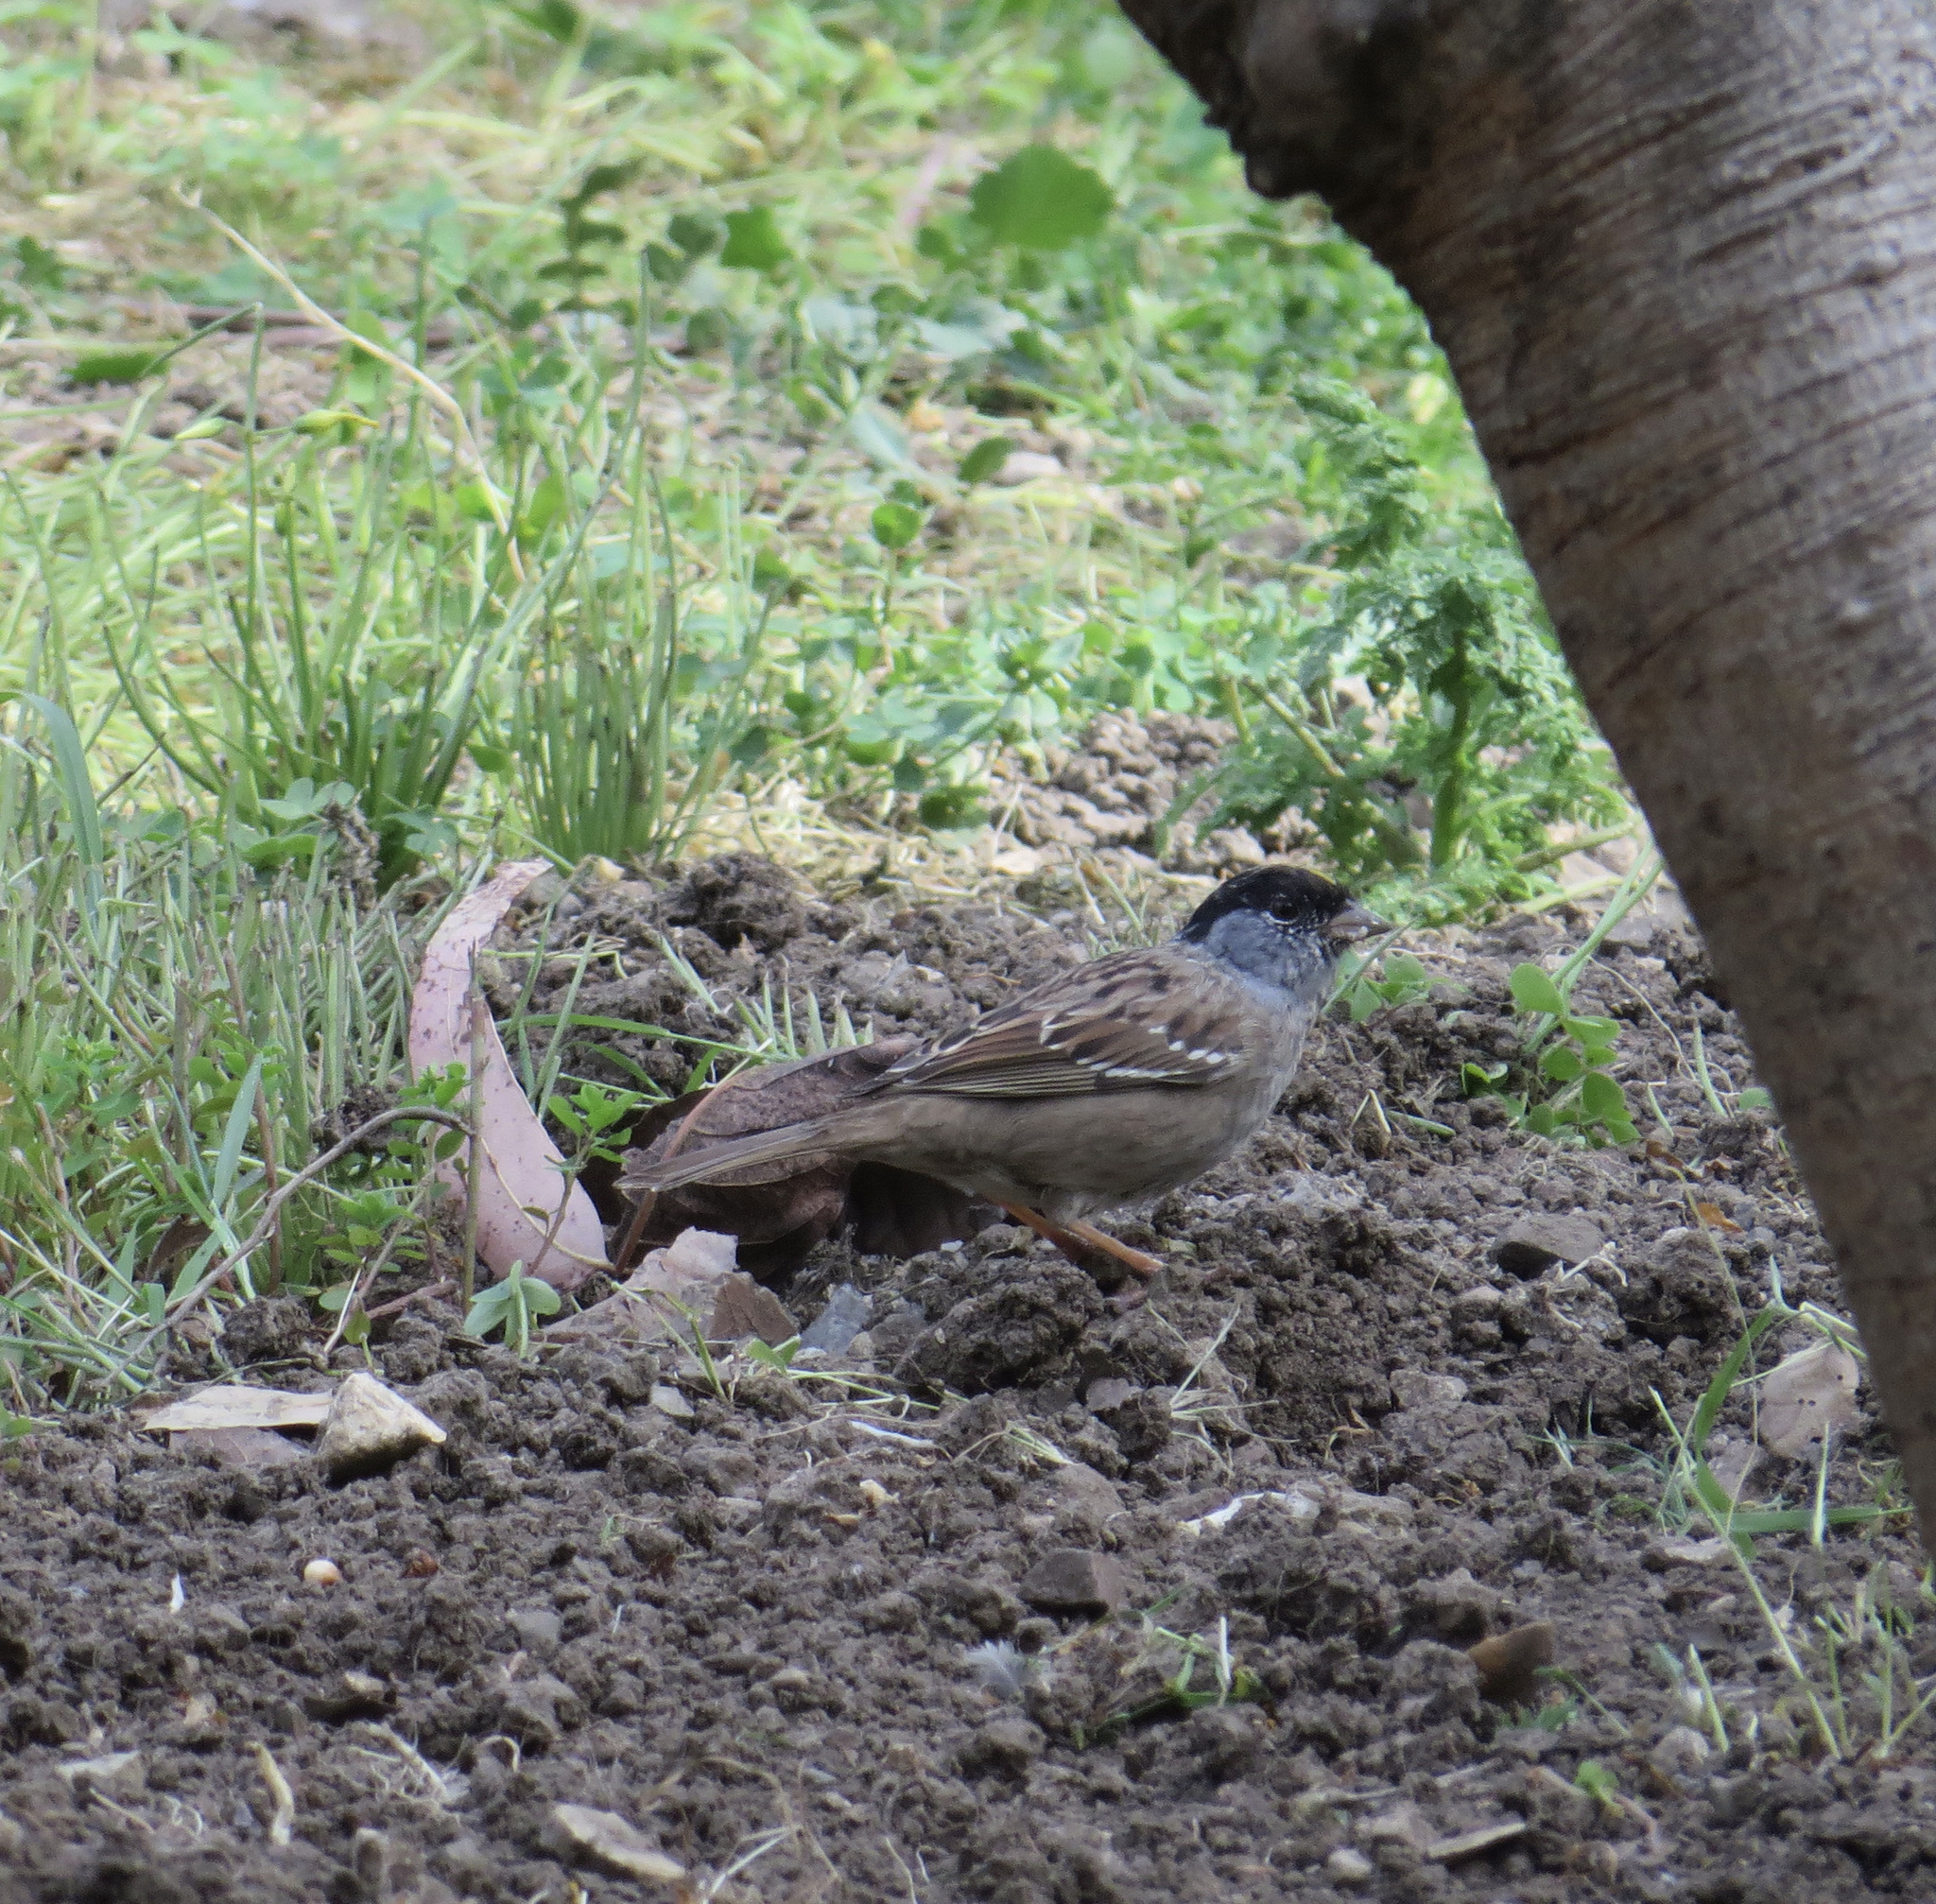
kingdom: Animalia
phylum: Chordata
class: Aves
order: Passeriformes
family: Passerellidae
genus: Zonotrichia
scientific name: Zonotrichia atricapilla
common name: Golden-crowned sparrow
